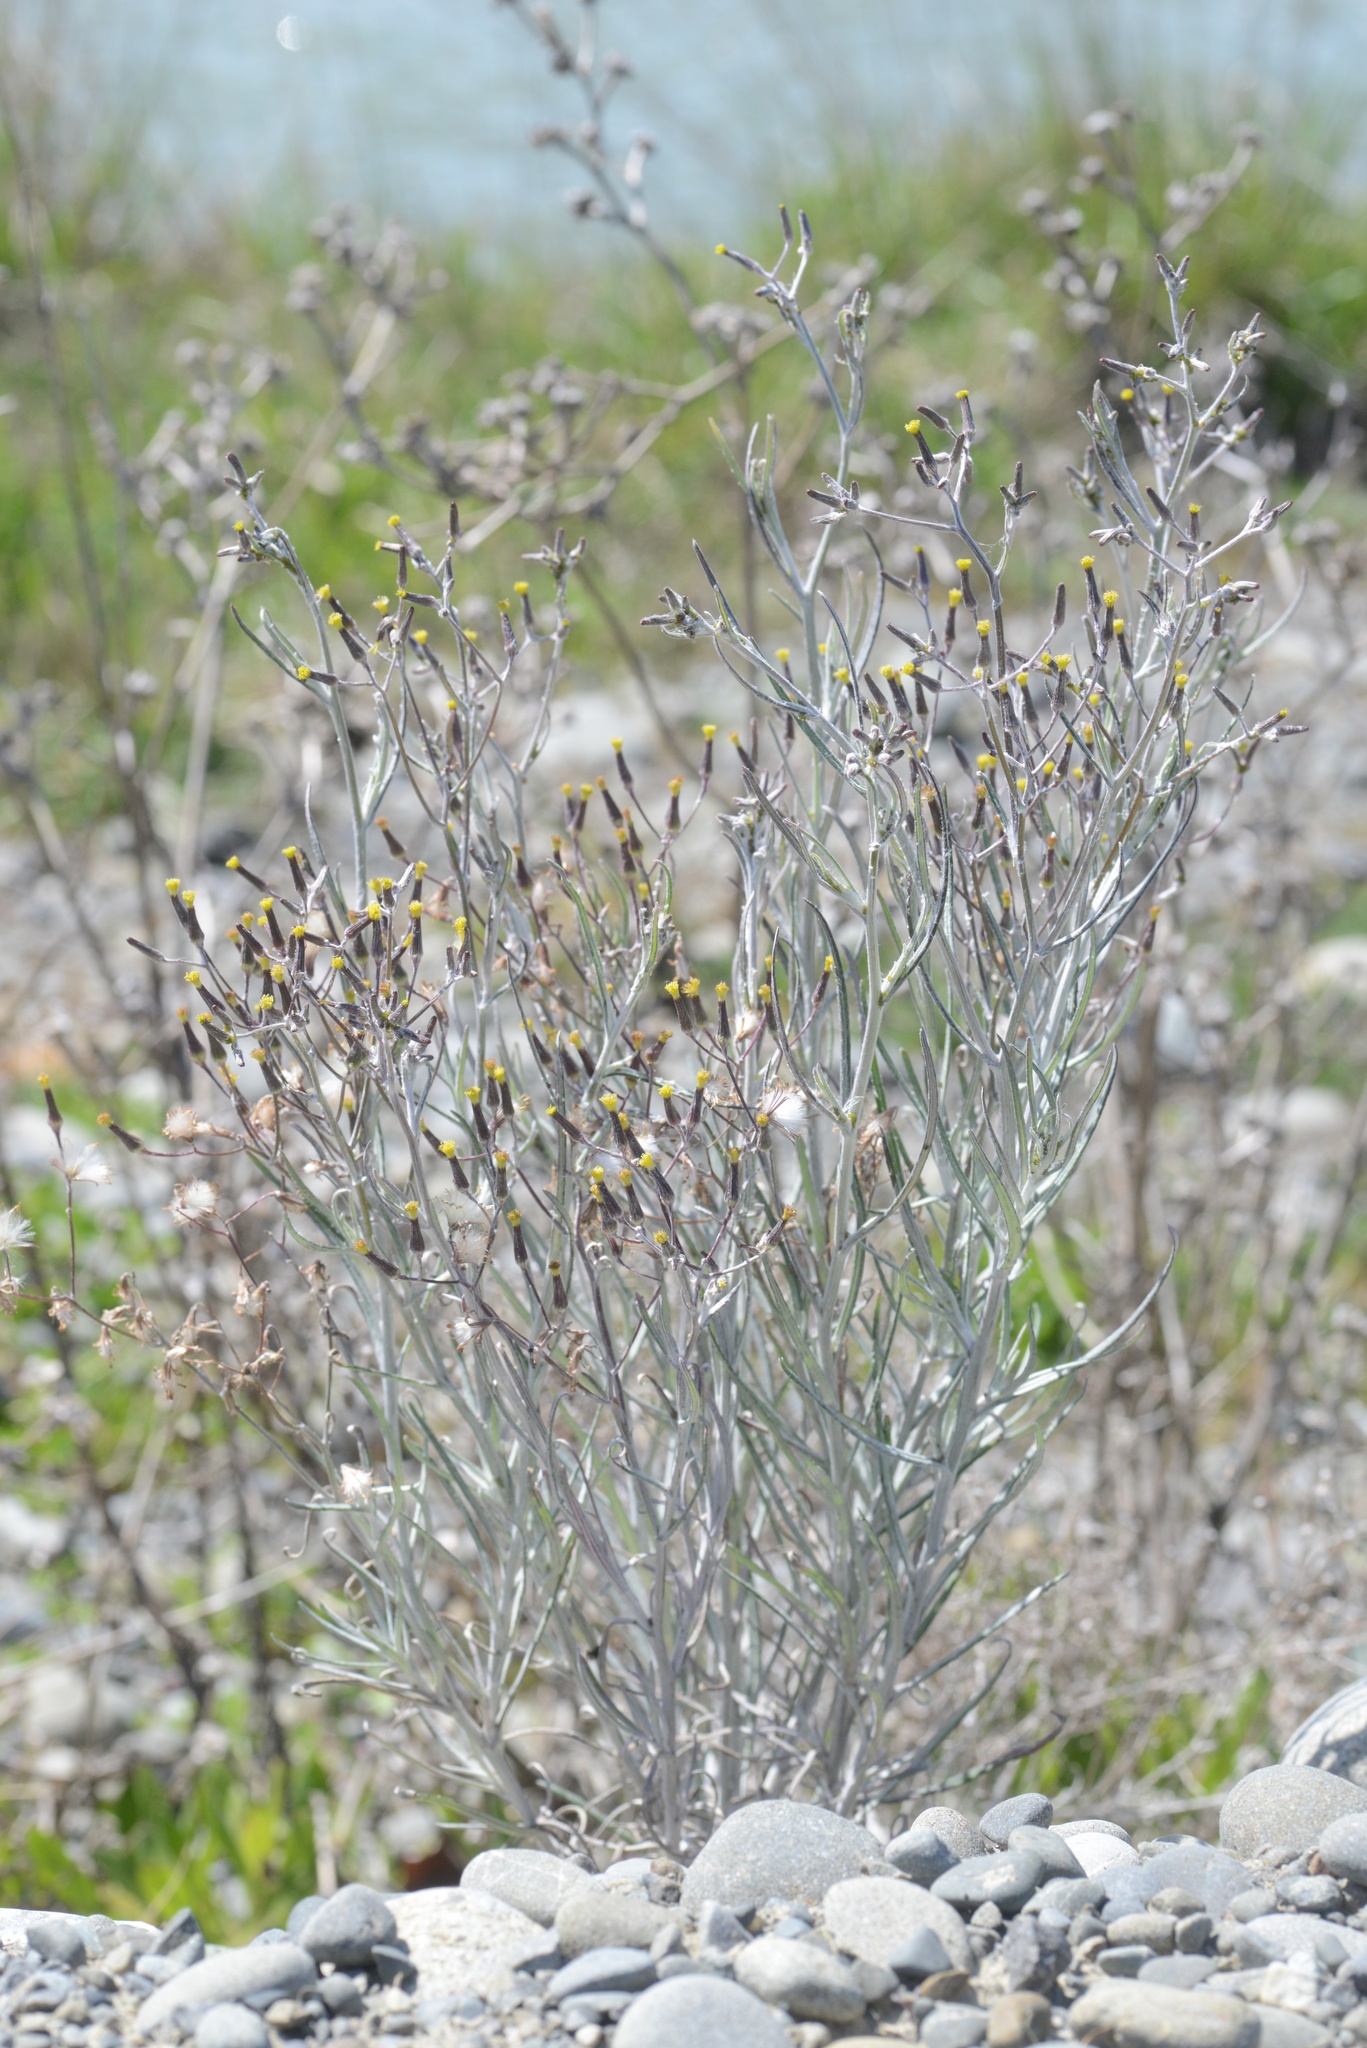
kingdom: Plantae
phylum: Tracheophyta
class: Magnoliopsida
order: Asterales
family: Asteraceae
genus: Senecio
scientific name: Senecio quadridentatus
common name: Cotton fireweed
